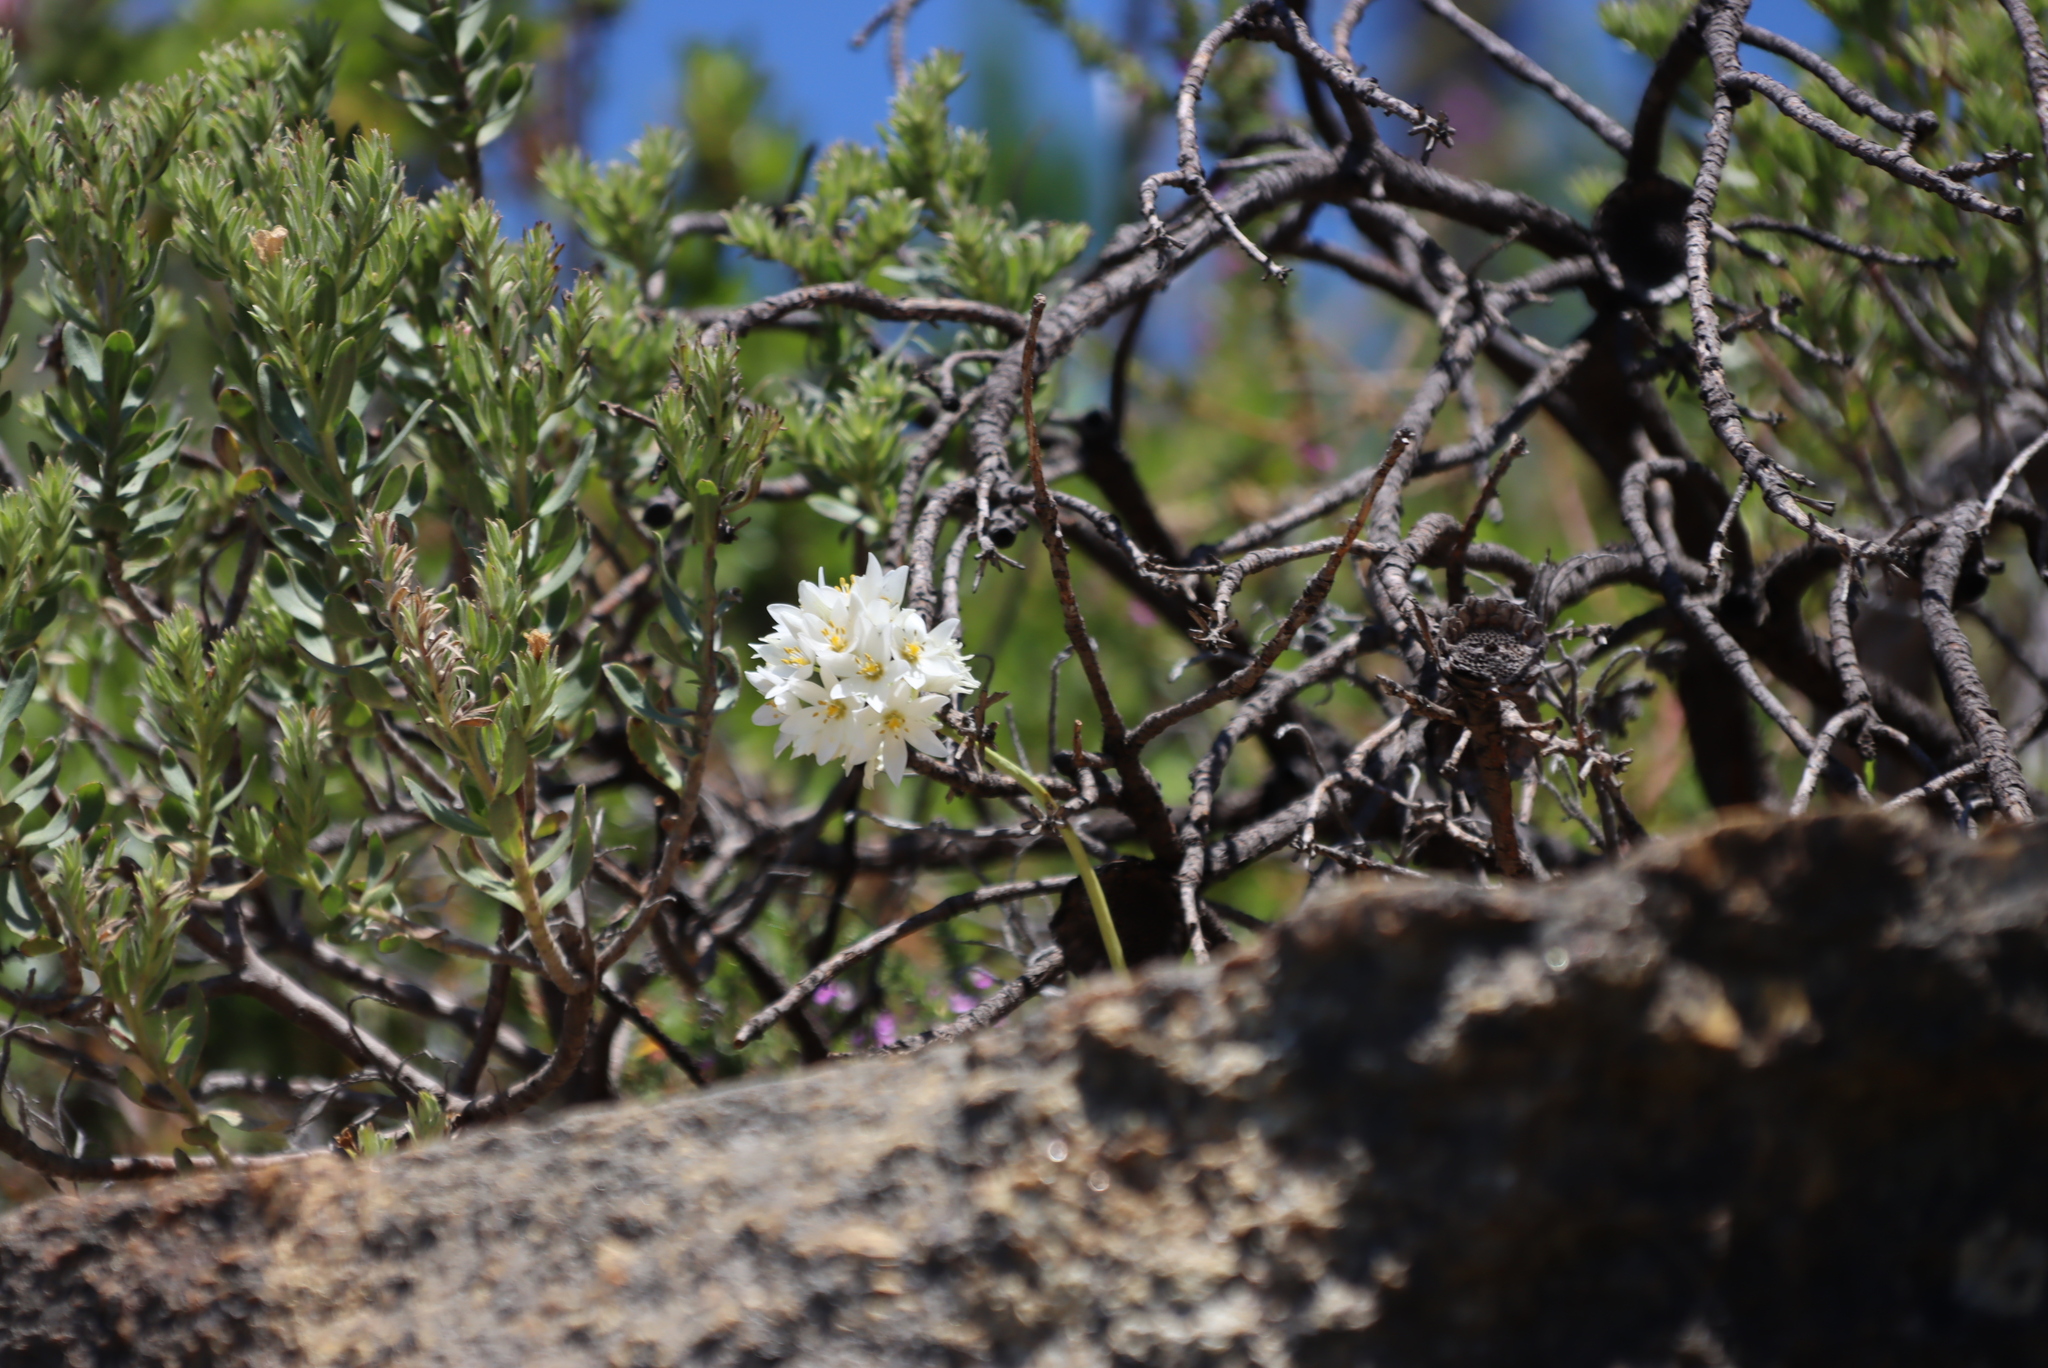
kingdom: Plantae
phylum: Tracheophyta
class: Liliopsida
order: Asparagales
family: Asparagaceae
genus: Ornithogalum
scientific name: Ornithogalum thyrsoides
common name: Chincherinchee
